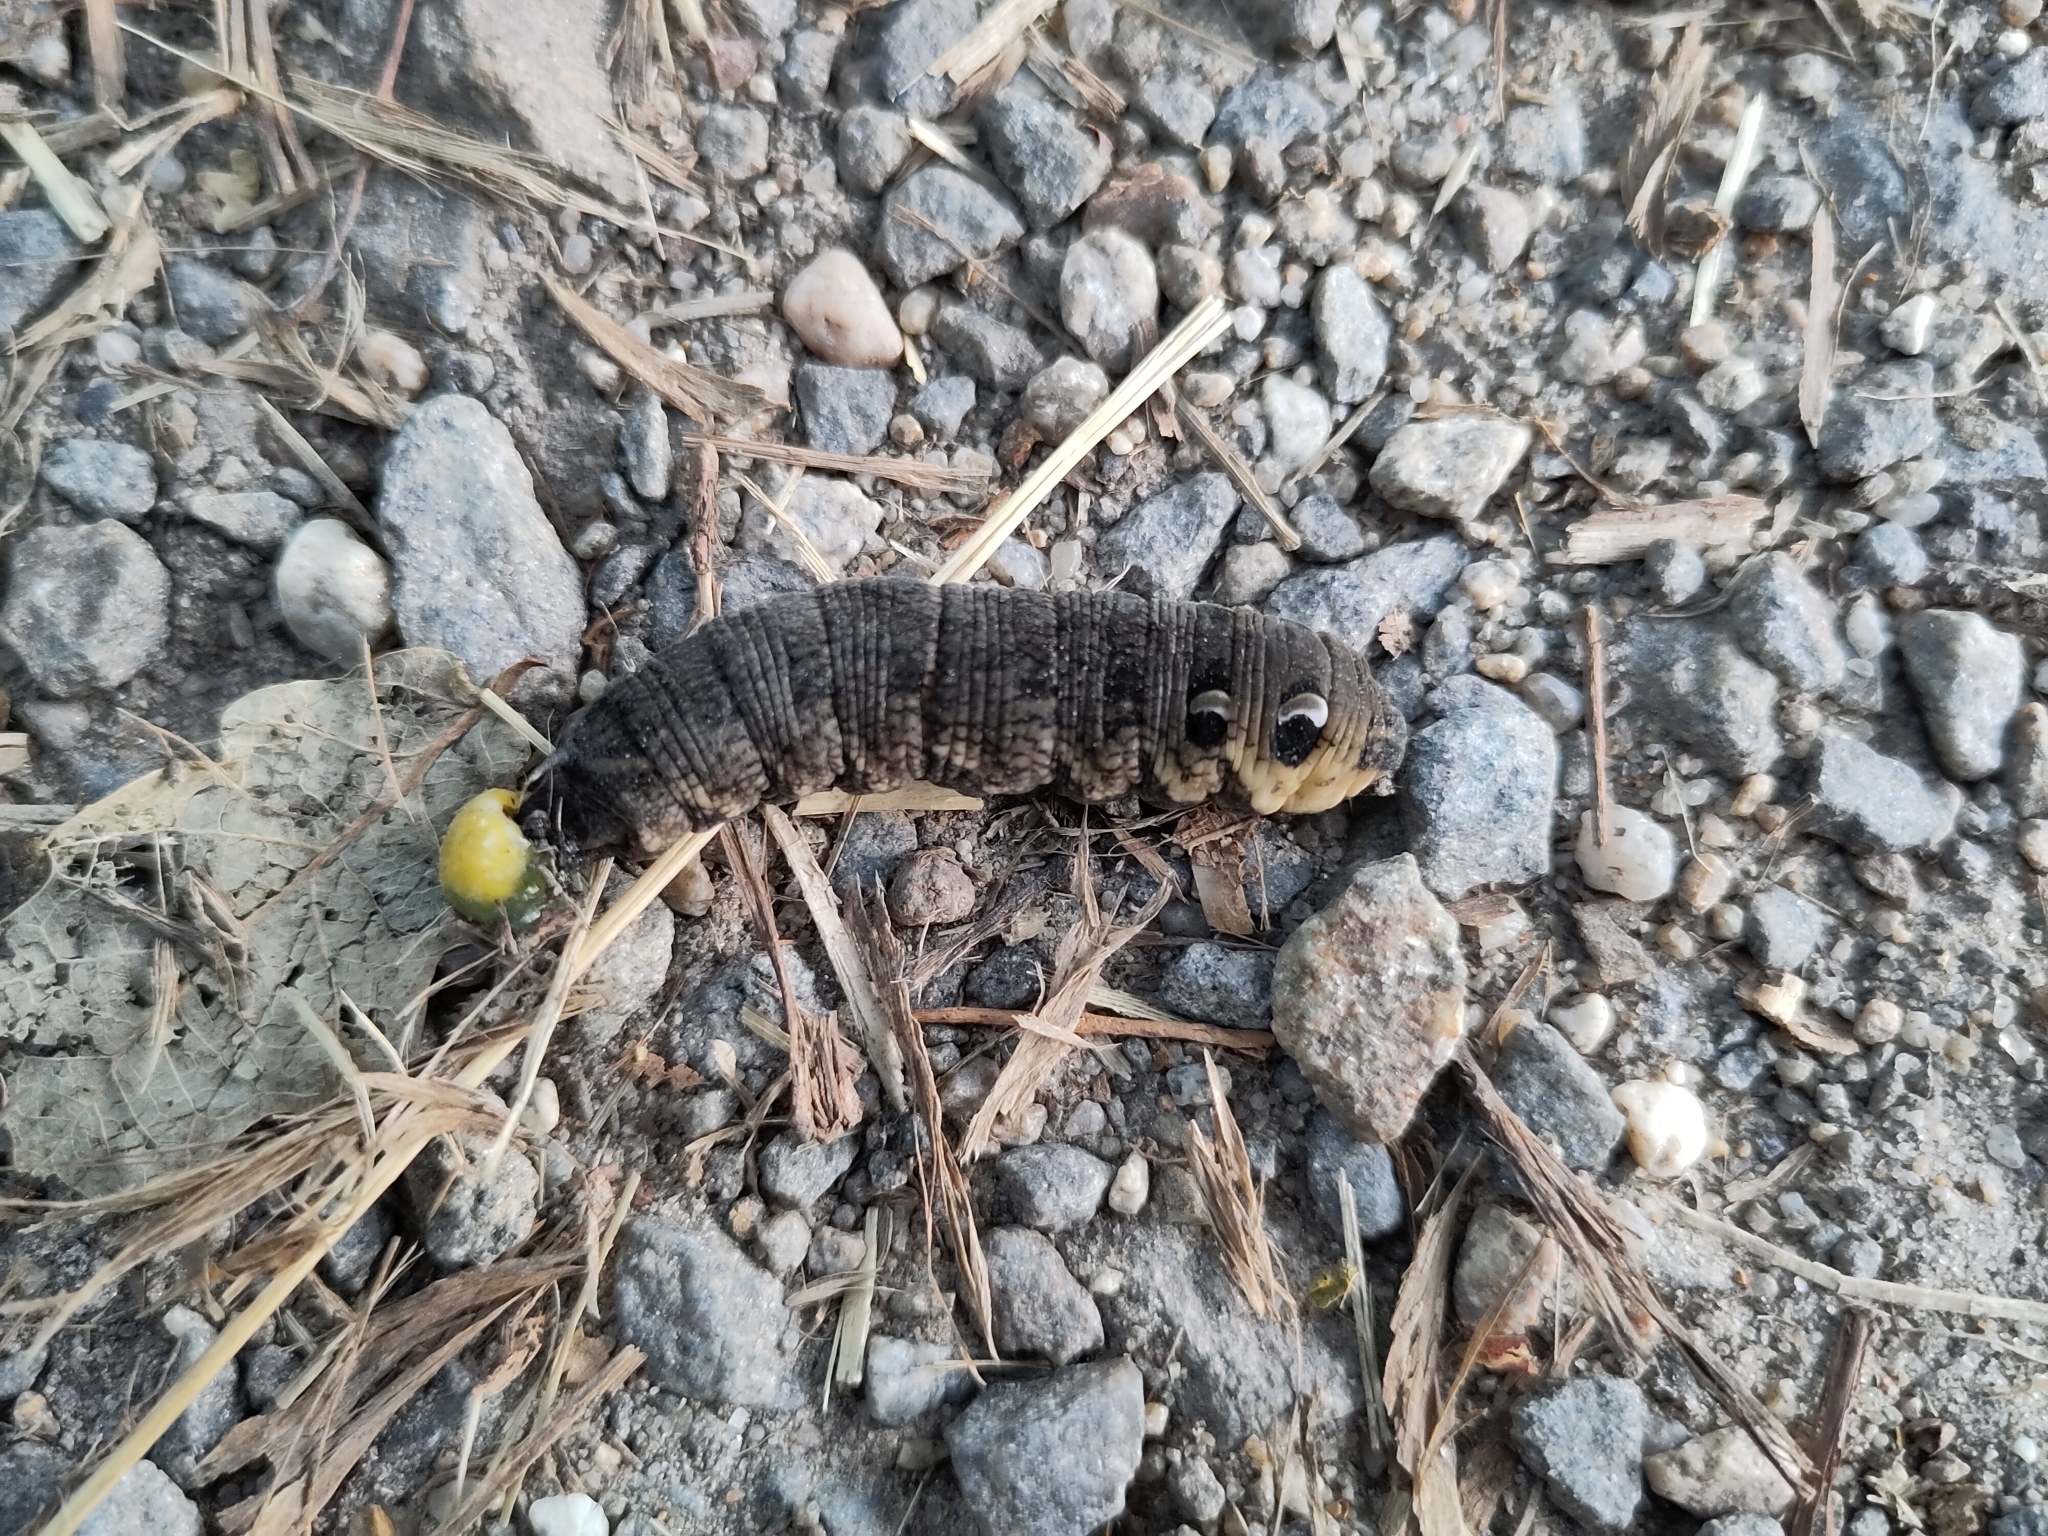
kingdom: Animalia
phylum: Arthropoda
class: Insecta
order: Lepidoptera
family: Sphingidae
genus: Deilephila
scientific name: Deilephila elpenor
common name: Elephant hawk-moth
